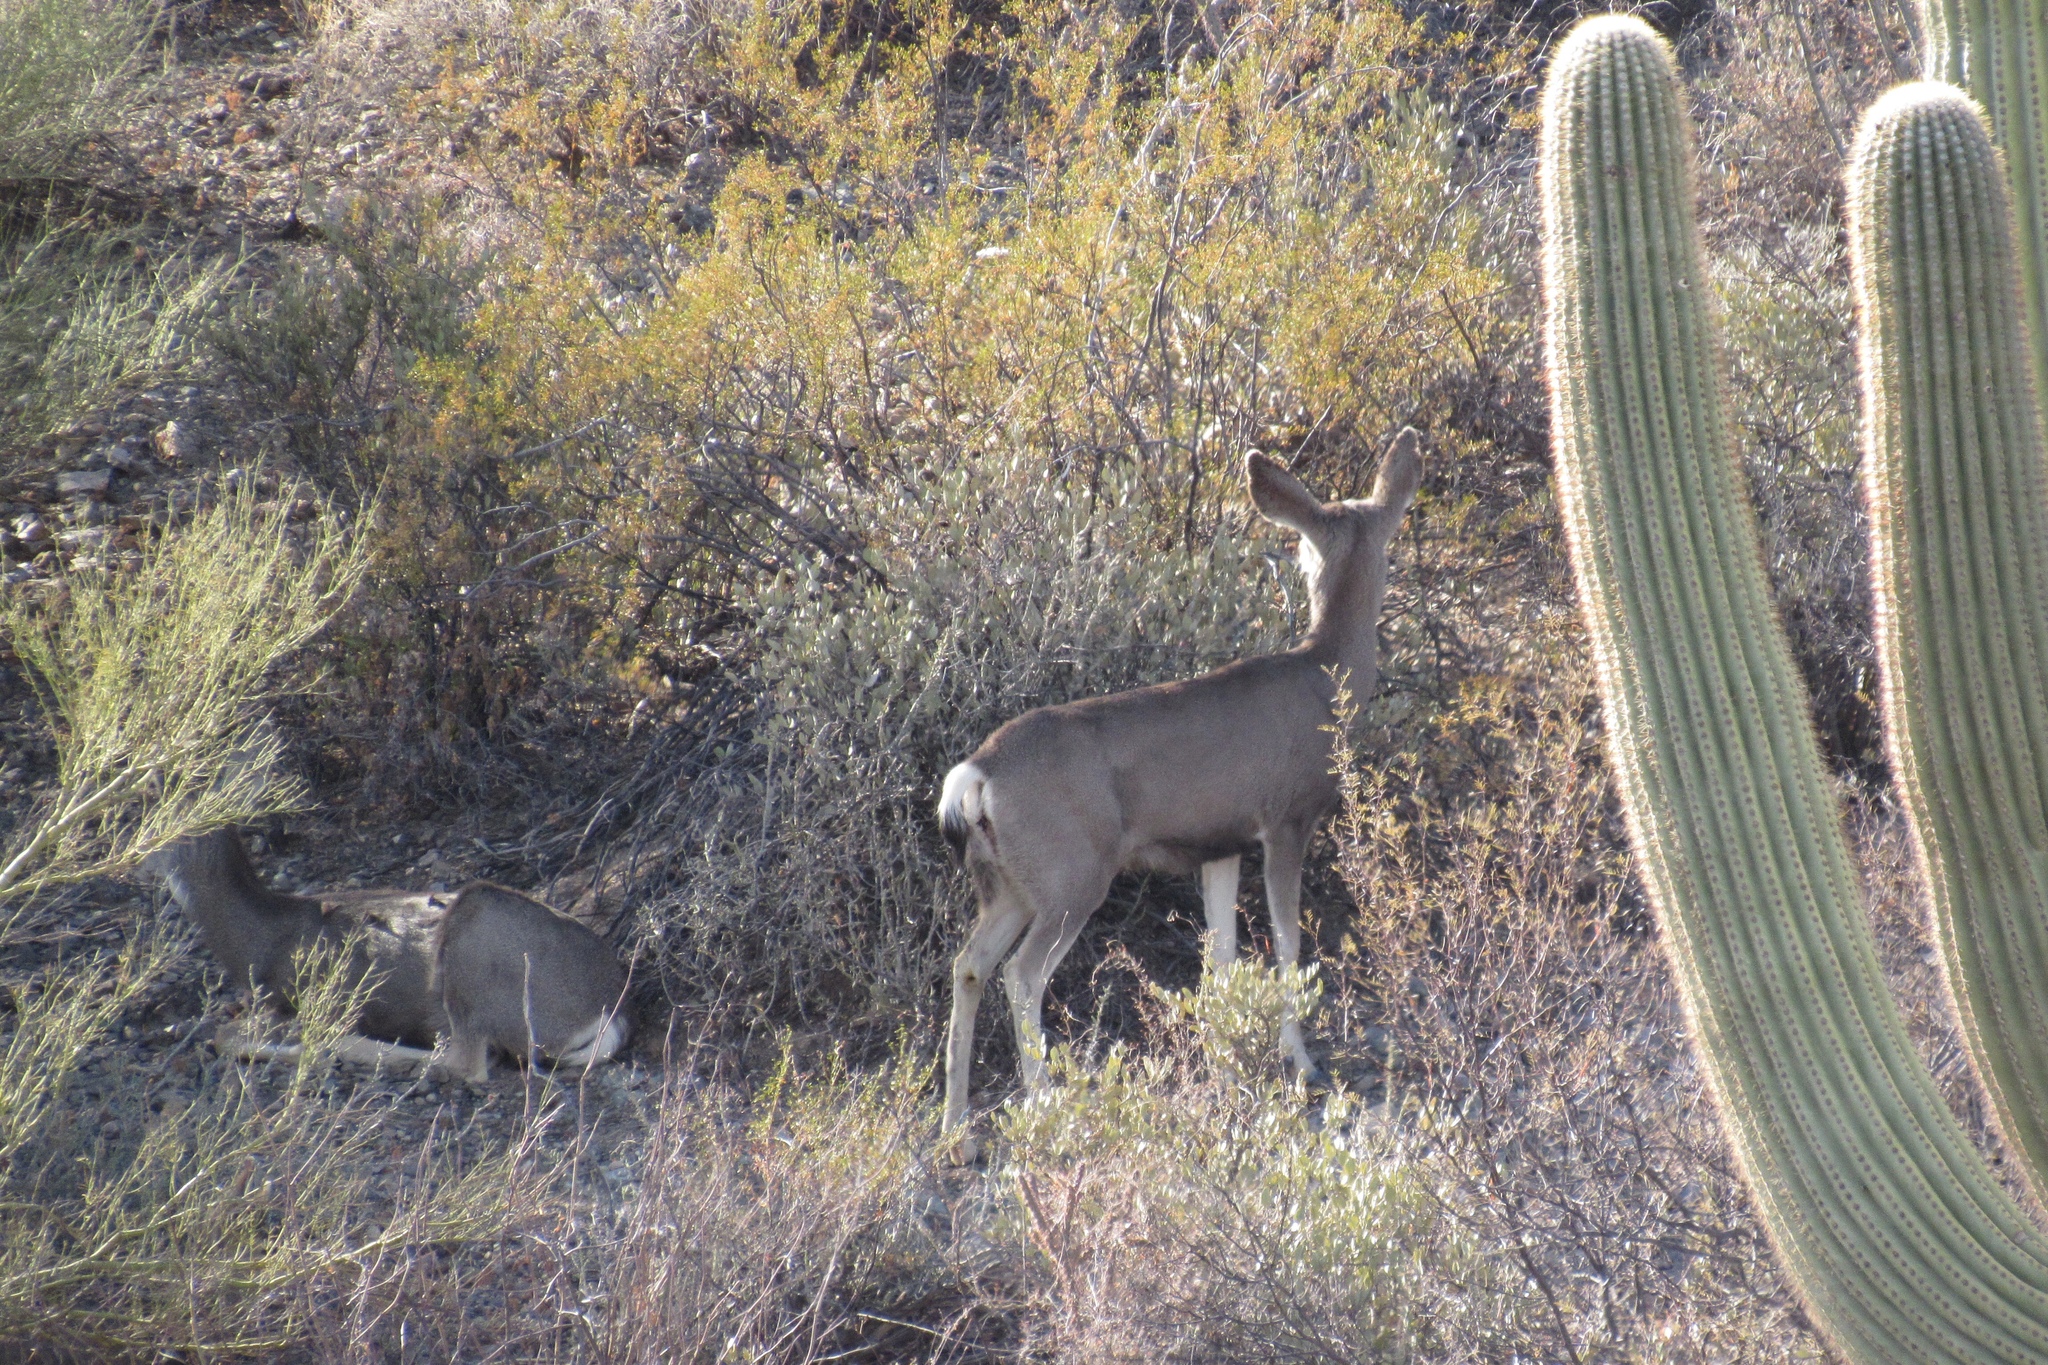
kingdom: Animalia
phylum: Chordata
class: Mammalia
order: Artiodactyla
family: Cervidae
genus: Odocoileus
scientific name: Odocoileus hemionus
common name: Mule deer
